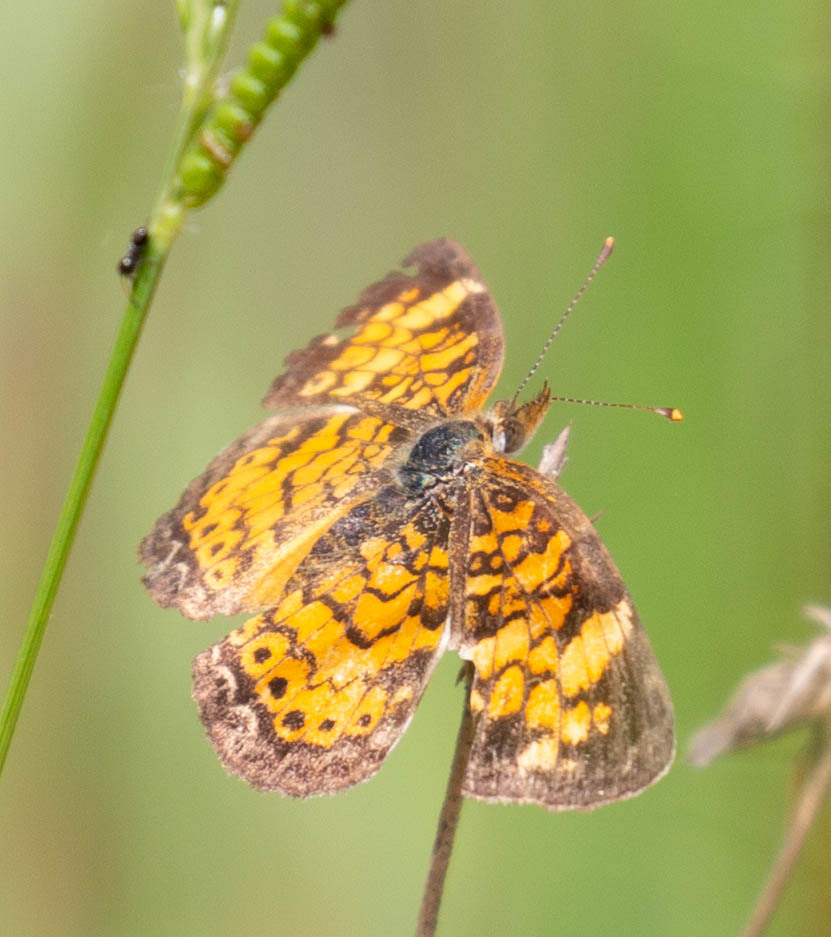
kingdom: Animalia
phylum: Arthropoda
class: Insecta
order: Lepidoptera
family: Nymphalidae
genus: Phyciodes
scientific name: Phyciodes tharos
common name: Pearl crescent
